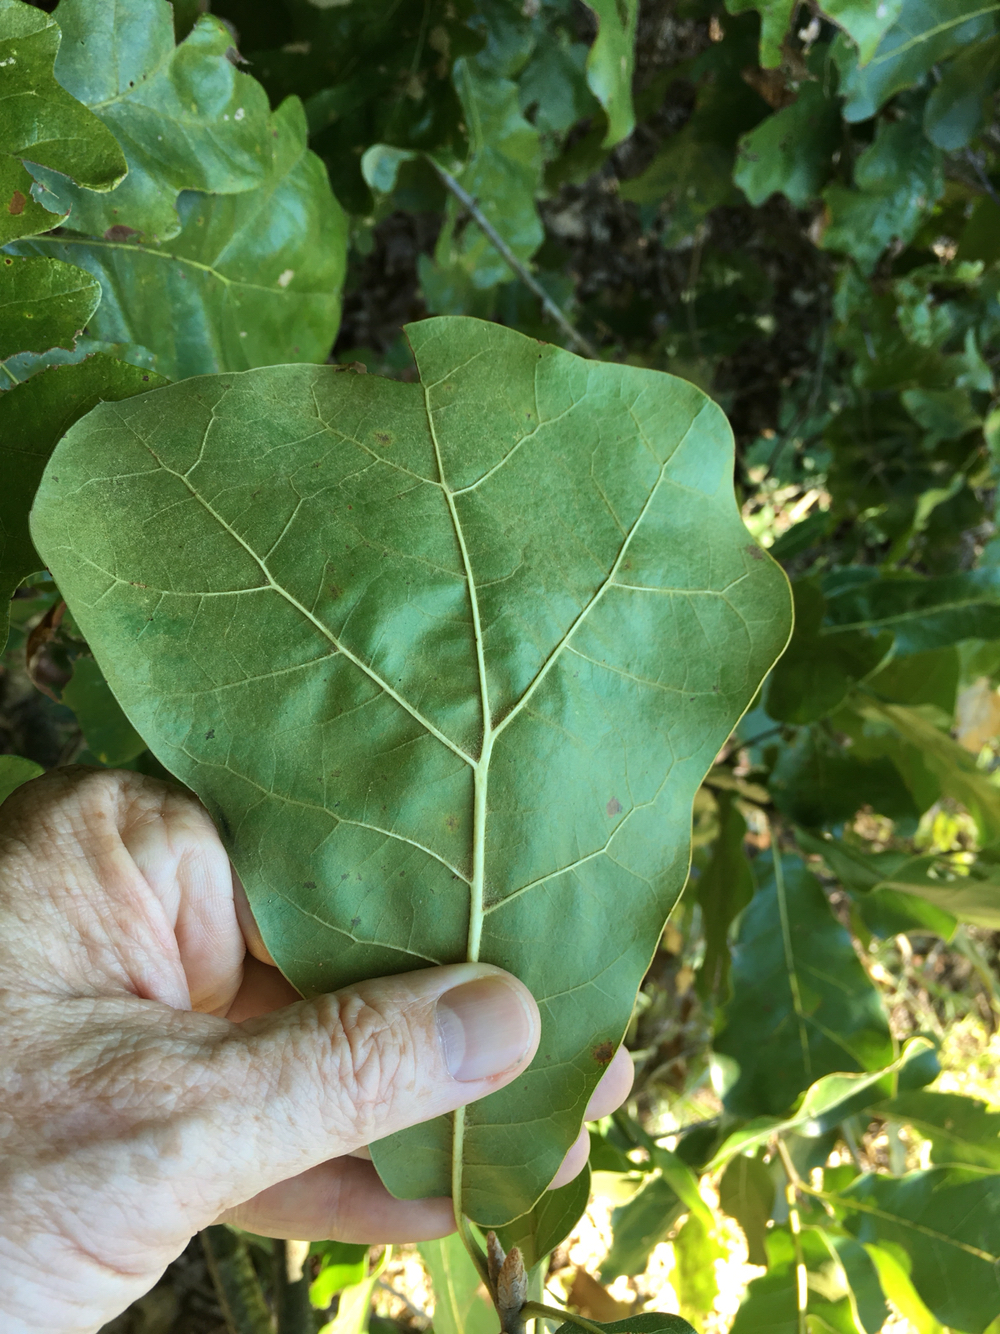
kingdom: Plantae
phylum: Tracheophyta
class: Magnoliopsida
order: Fagales
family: Fagaceae
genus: Quercus
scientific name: Quercus marilandica
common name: Blackjack oak
